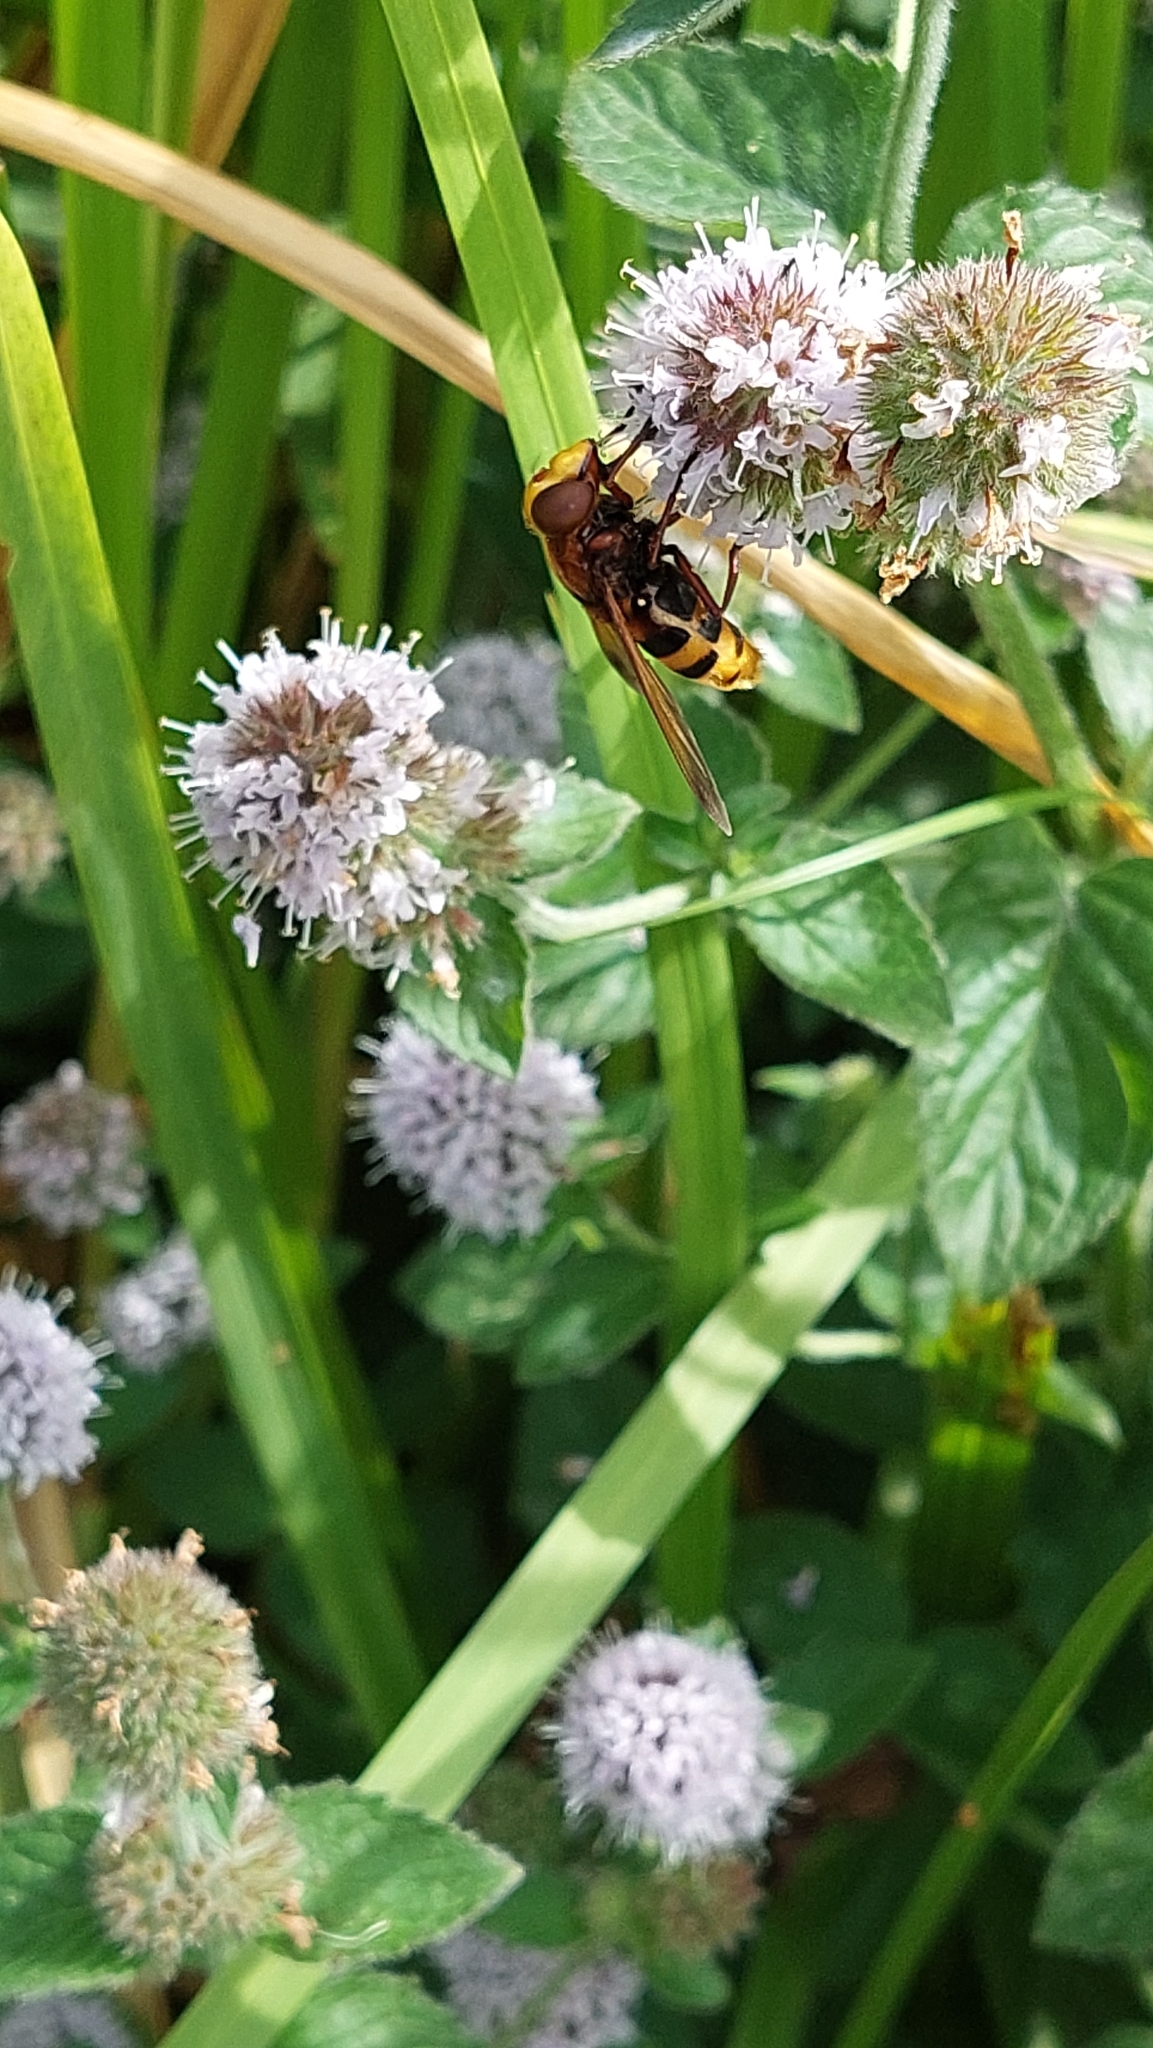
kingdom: Animalia
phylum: Arthropoda
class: Insecta
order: Diptera
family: Syrphidae
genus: Volucella
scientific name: Volucella zonaria
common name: Hornet hoverfly
